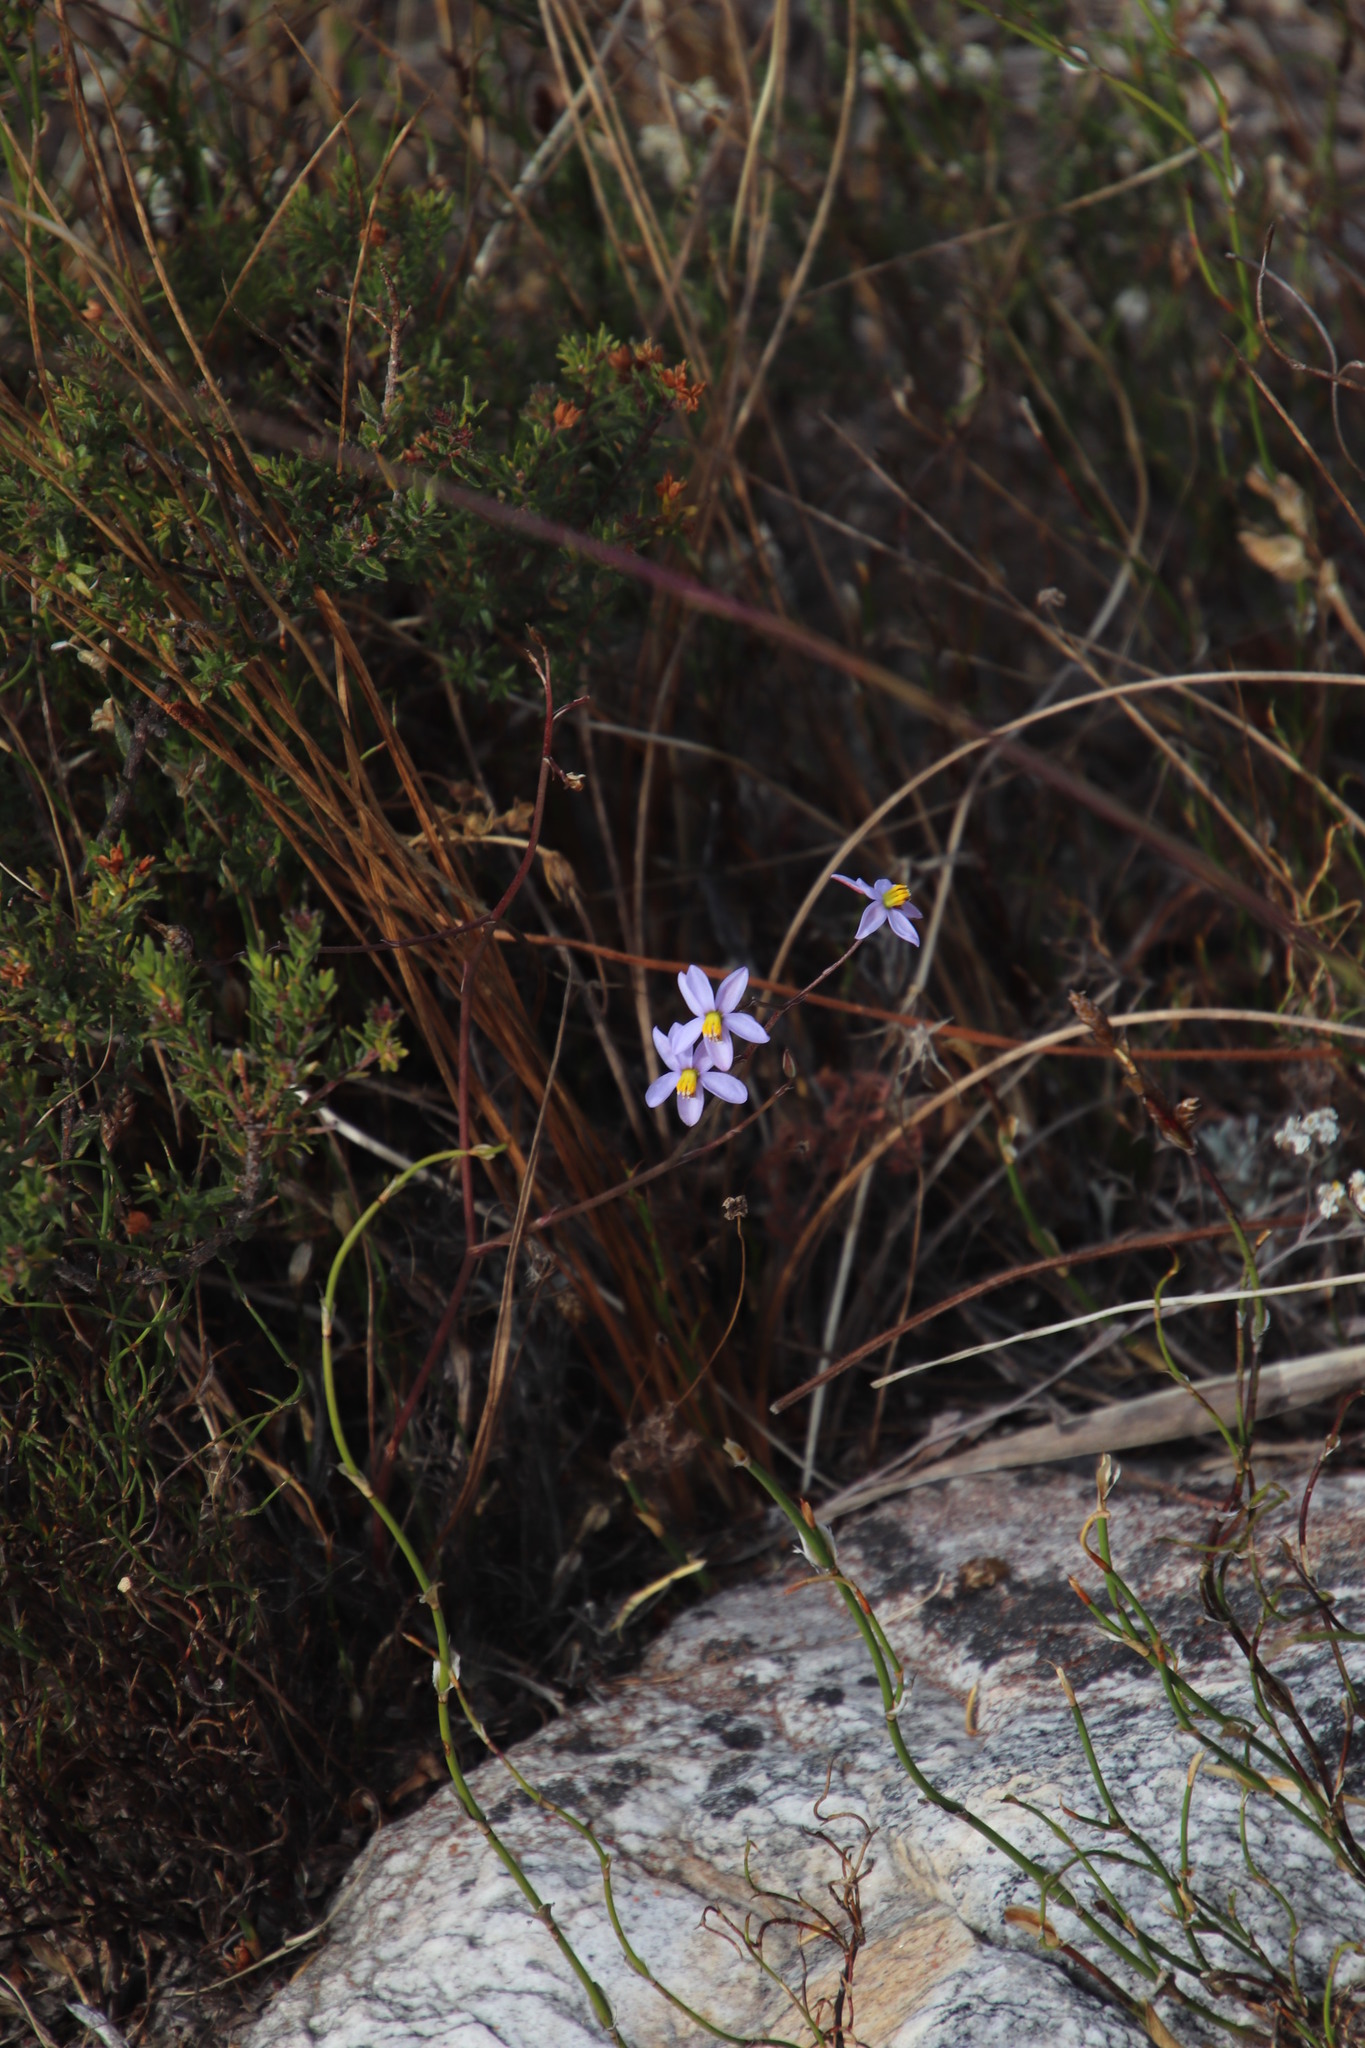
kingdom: Plantae
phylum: Tracheophyta
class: Liliopsida
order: Asparagales
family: Tecophilaeaceae
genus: Cyanella
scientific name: Cyanella hyacinthoides
